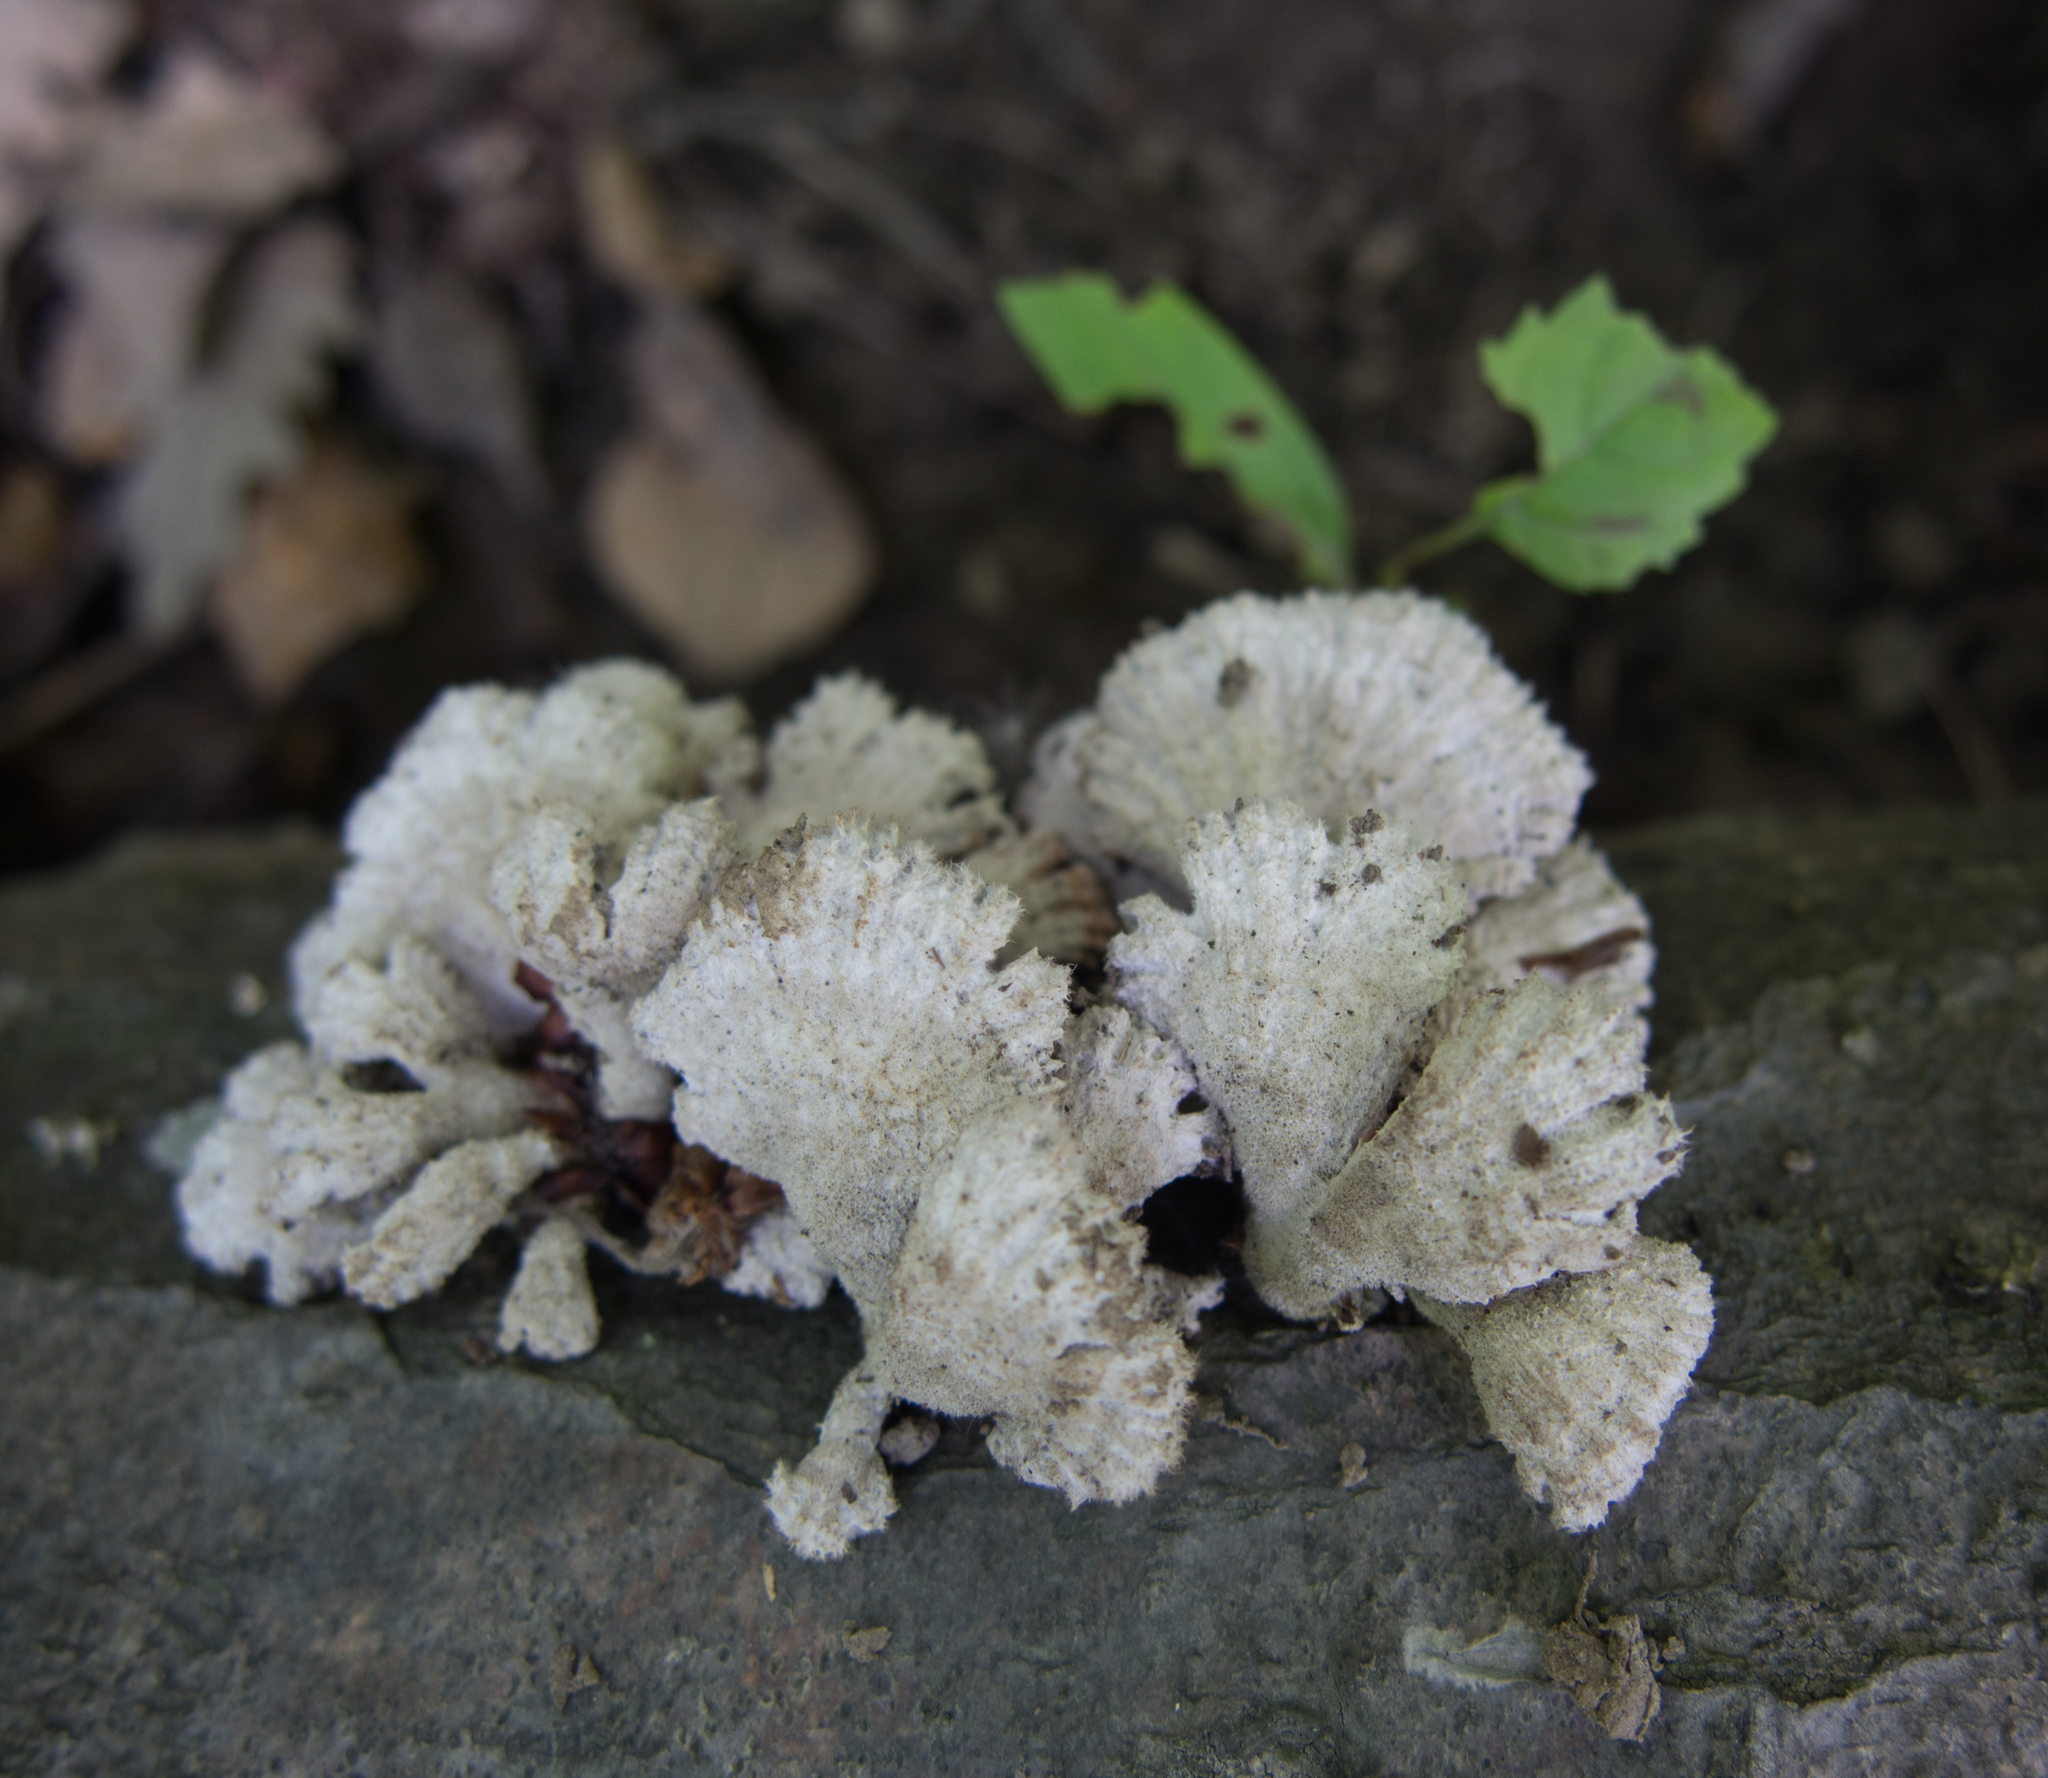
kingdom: Fungi
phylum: Basidiomycota
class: Agaricomycetes
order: Agaricales
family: Schizophyllaceae
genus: Schizophyllum
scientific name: Schizophyllum commune
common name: Common porecrust
